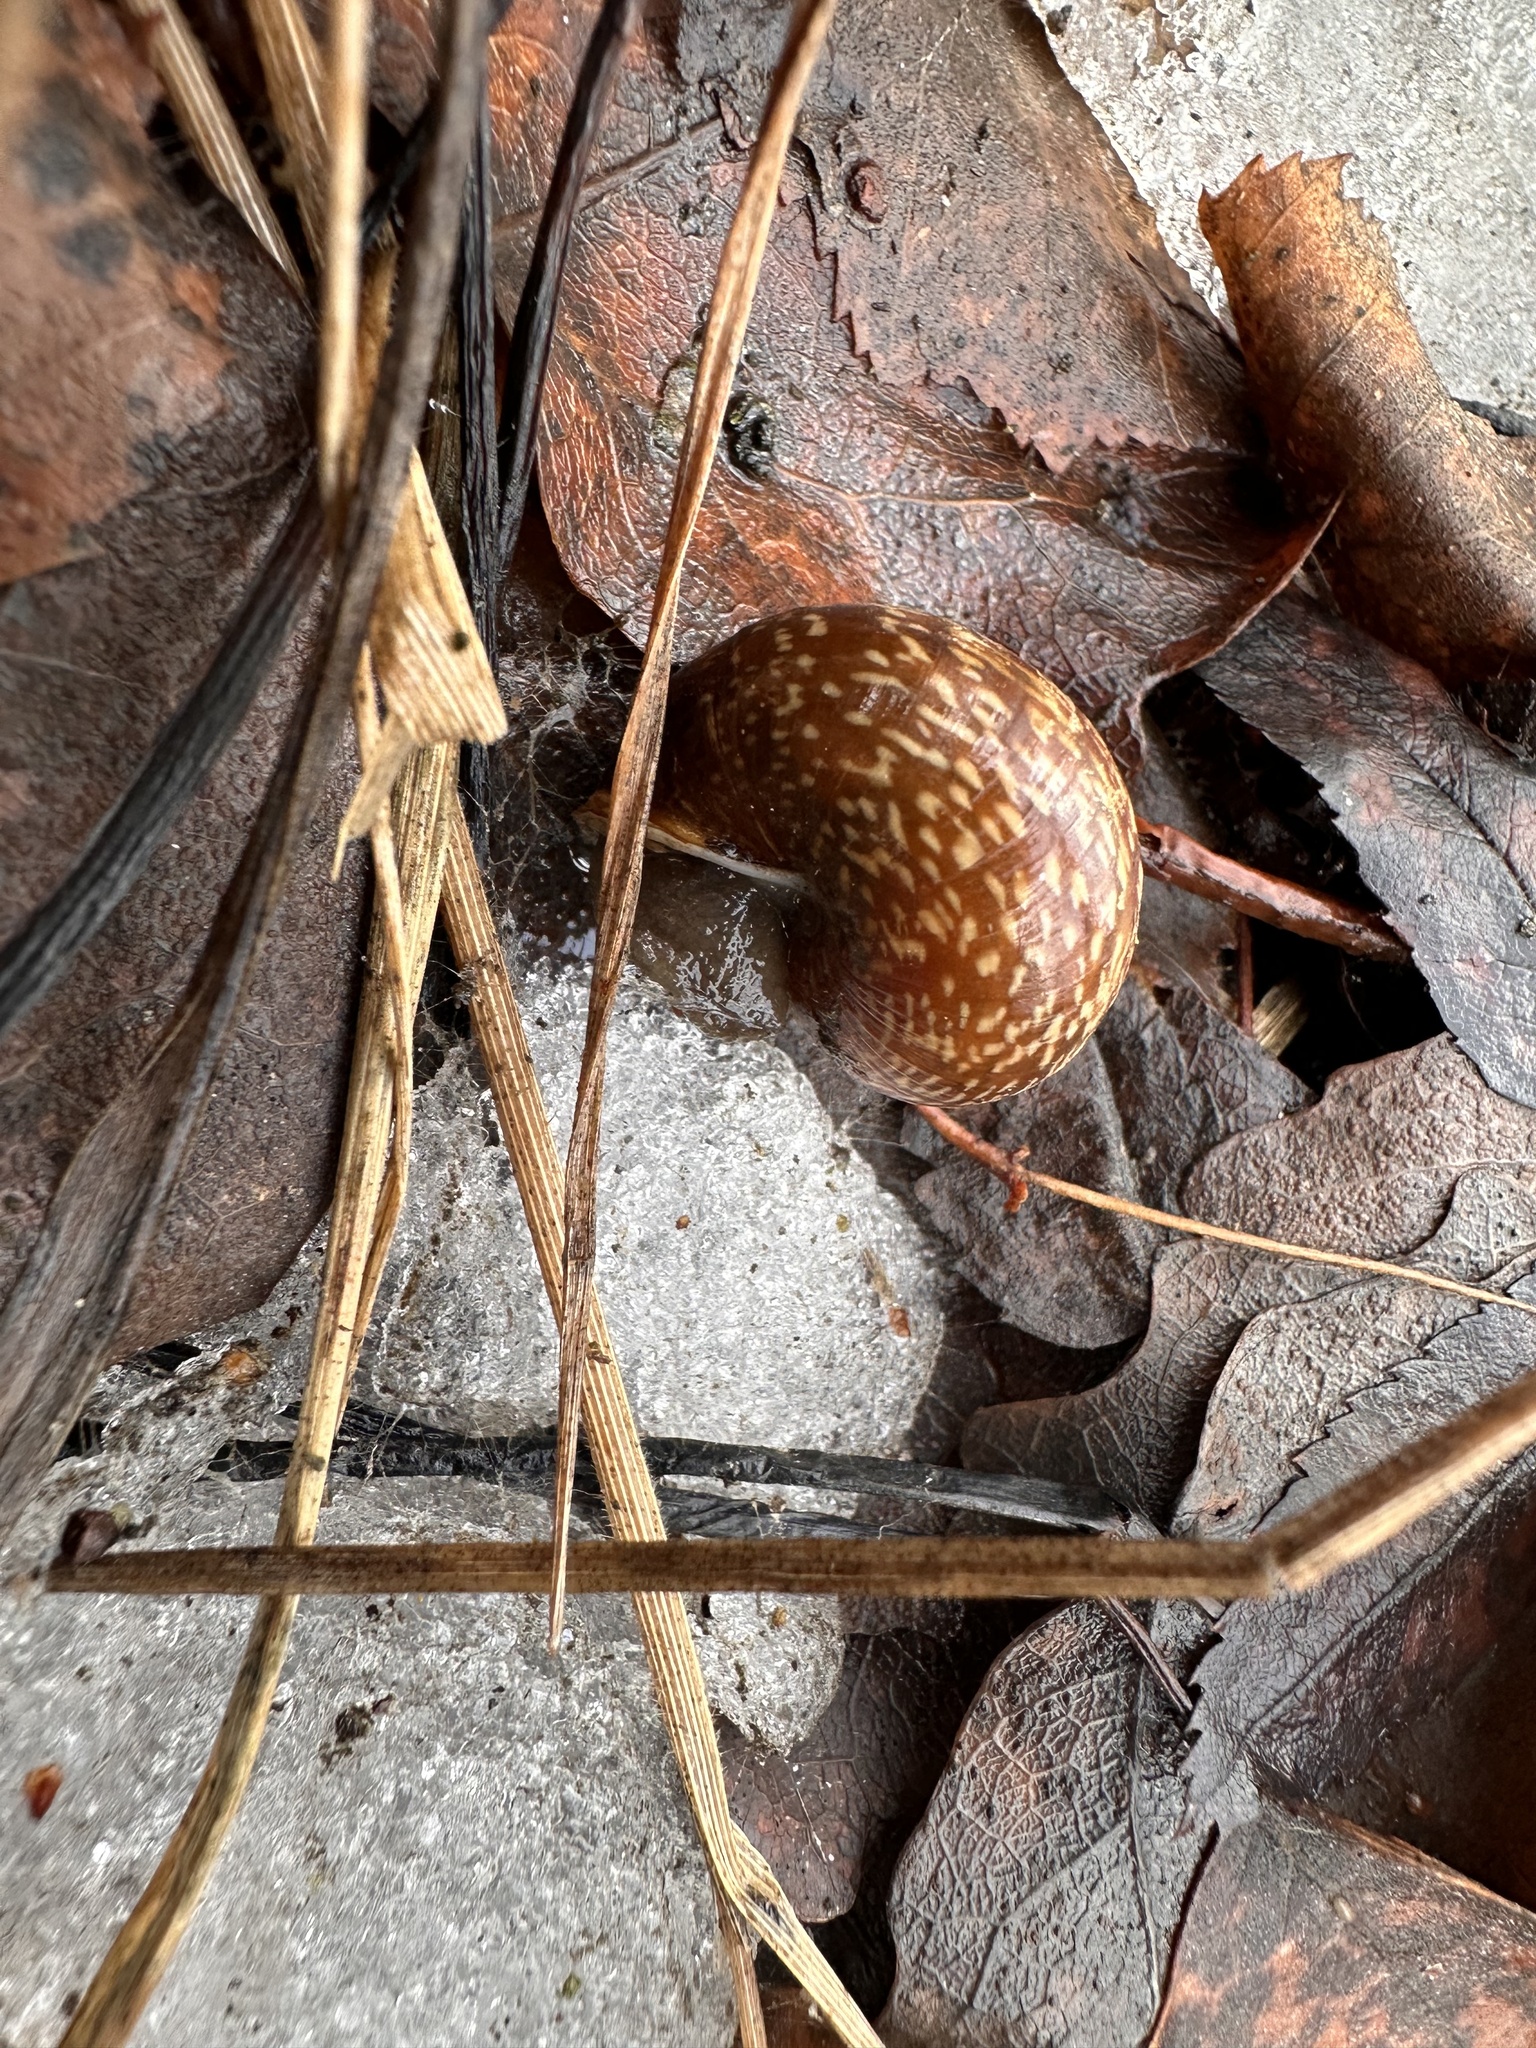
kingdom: Animalia
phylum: Mollusca
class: Gastropoda
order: Stylommatophora
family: Helicidae
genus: Arianta
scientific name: Arianta arbustorum
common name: Copse snail
